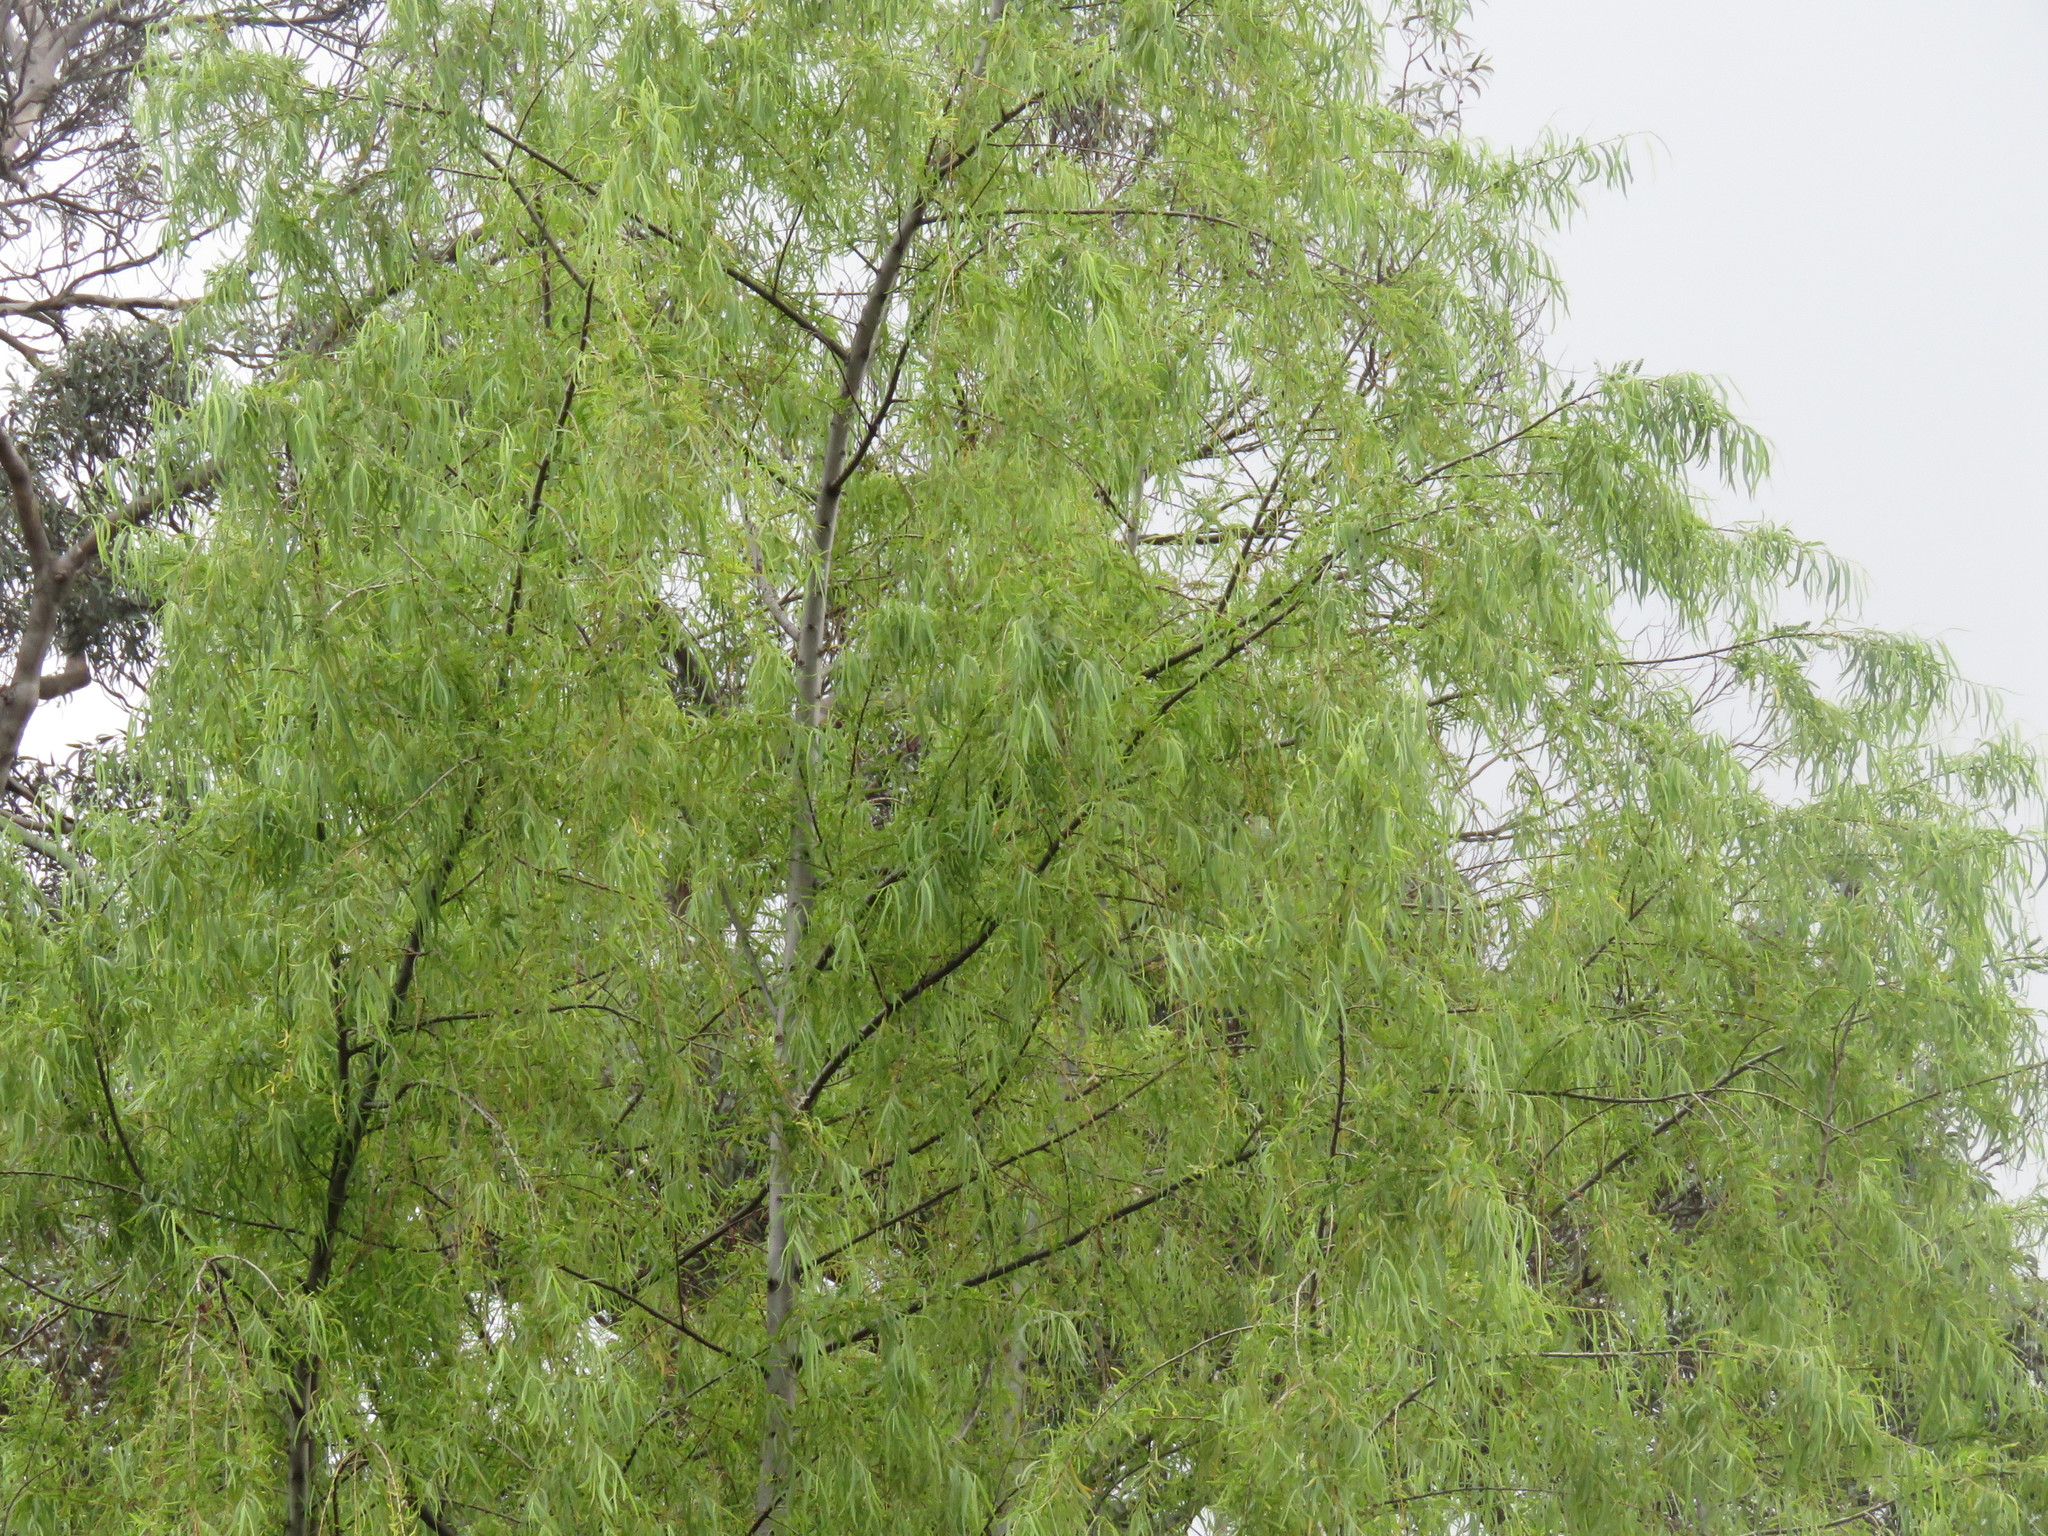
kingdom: Plantae
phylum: Tracheophyta
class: Magnoliopsida
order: Malpighiales
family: Salicaceae
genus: Salix
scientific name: Salix humboldtiana
